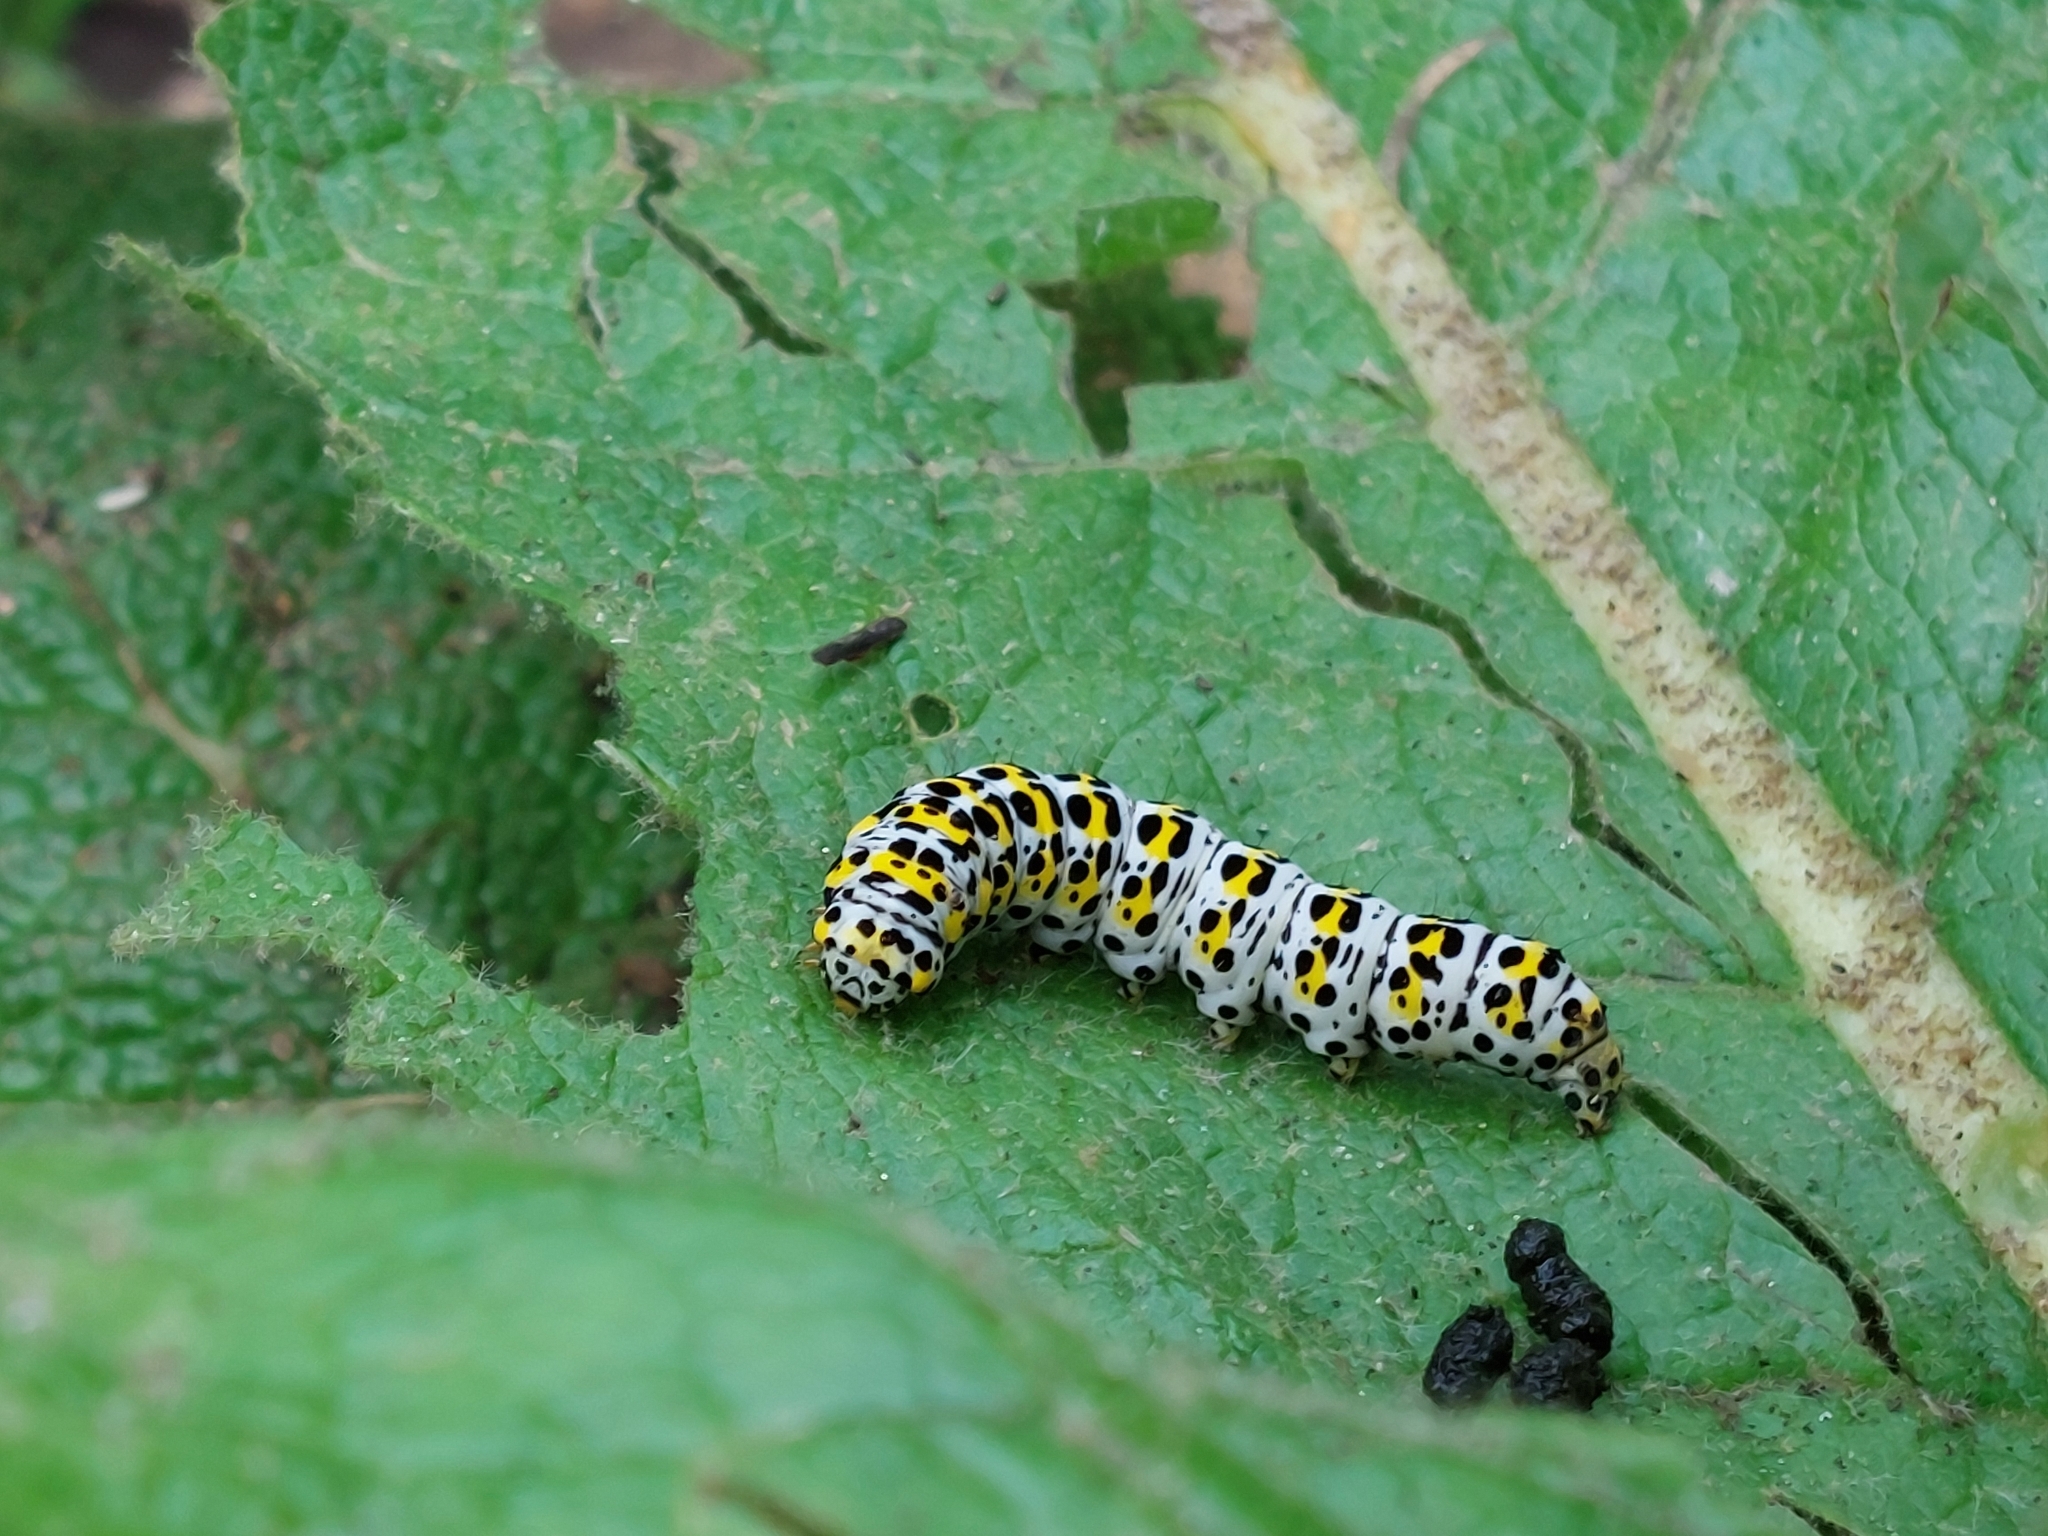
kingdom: Animalia
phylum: Arthropoda
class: Insecta
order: Lepidoptera
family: Noctuidae
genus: Cucullia
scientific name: Cucullia verbasci
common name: Mullein
